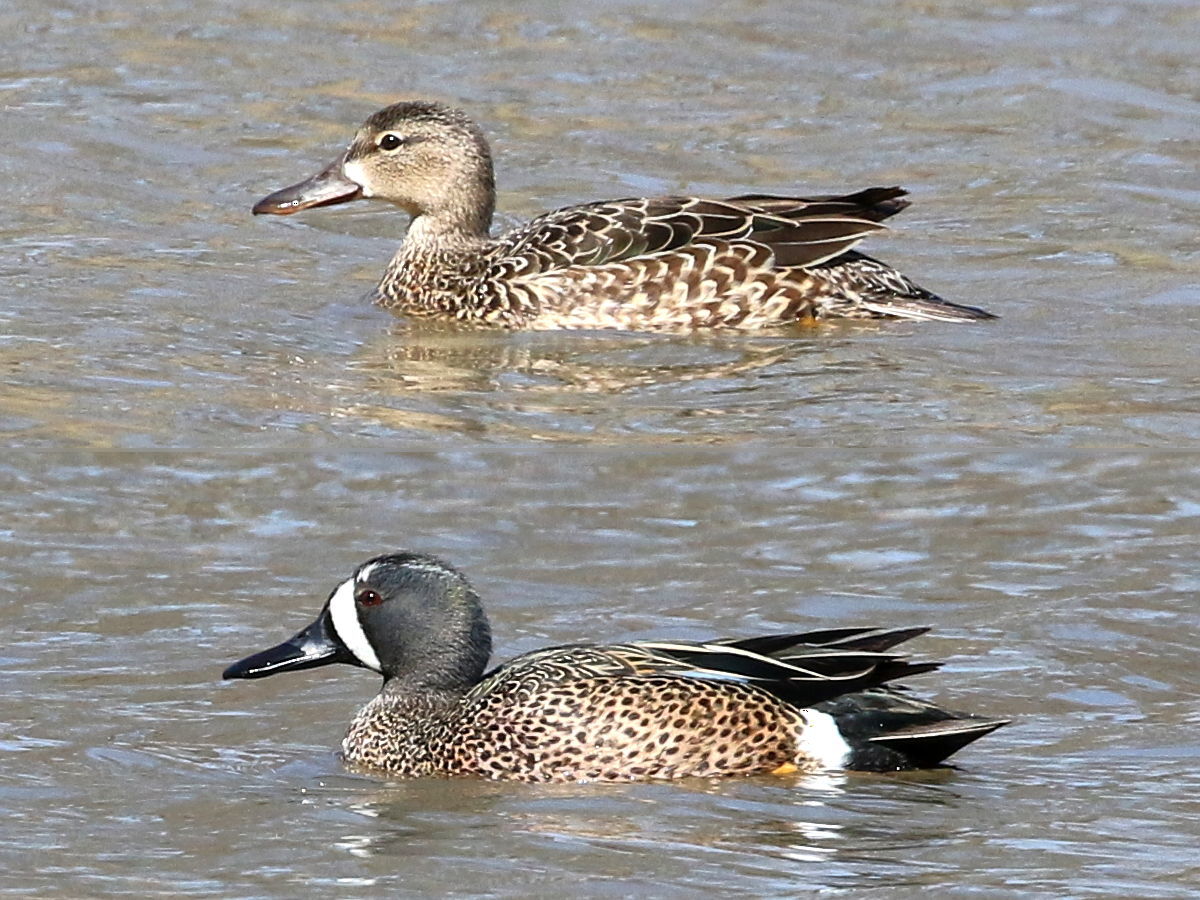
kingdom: Animalia
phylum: Chordata
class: Aves
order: Anseriformes
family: Anatidae
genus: Spatula
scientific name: Spatula discors
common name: Blue-winged teal
